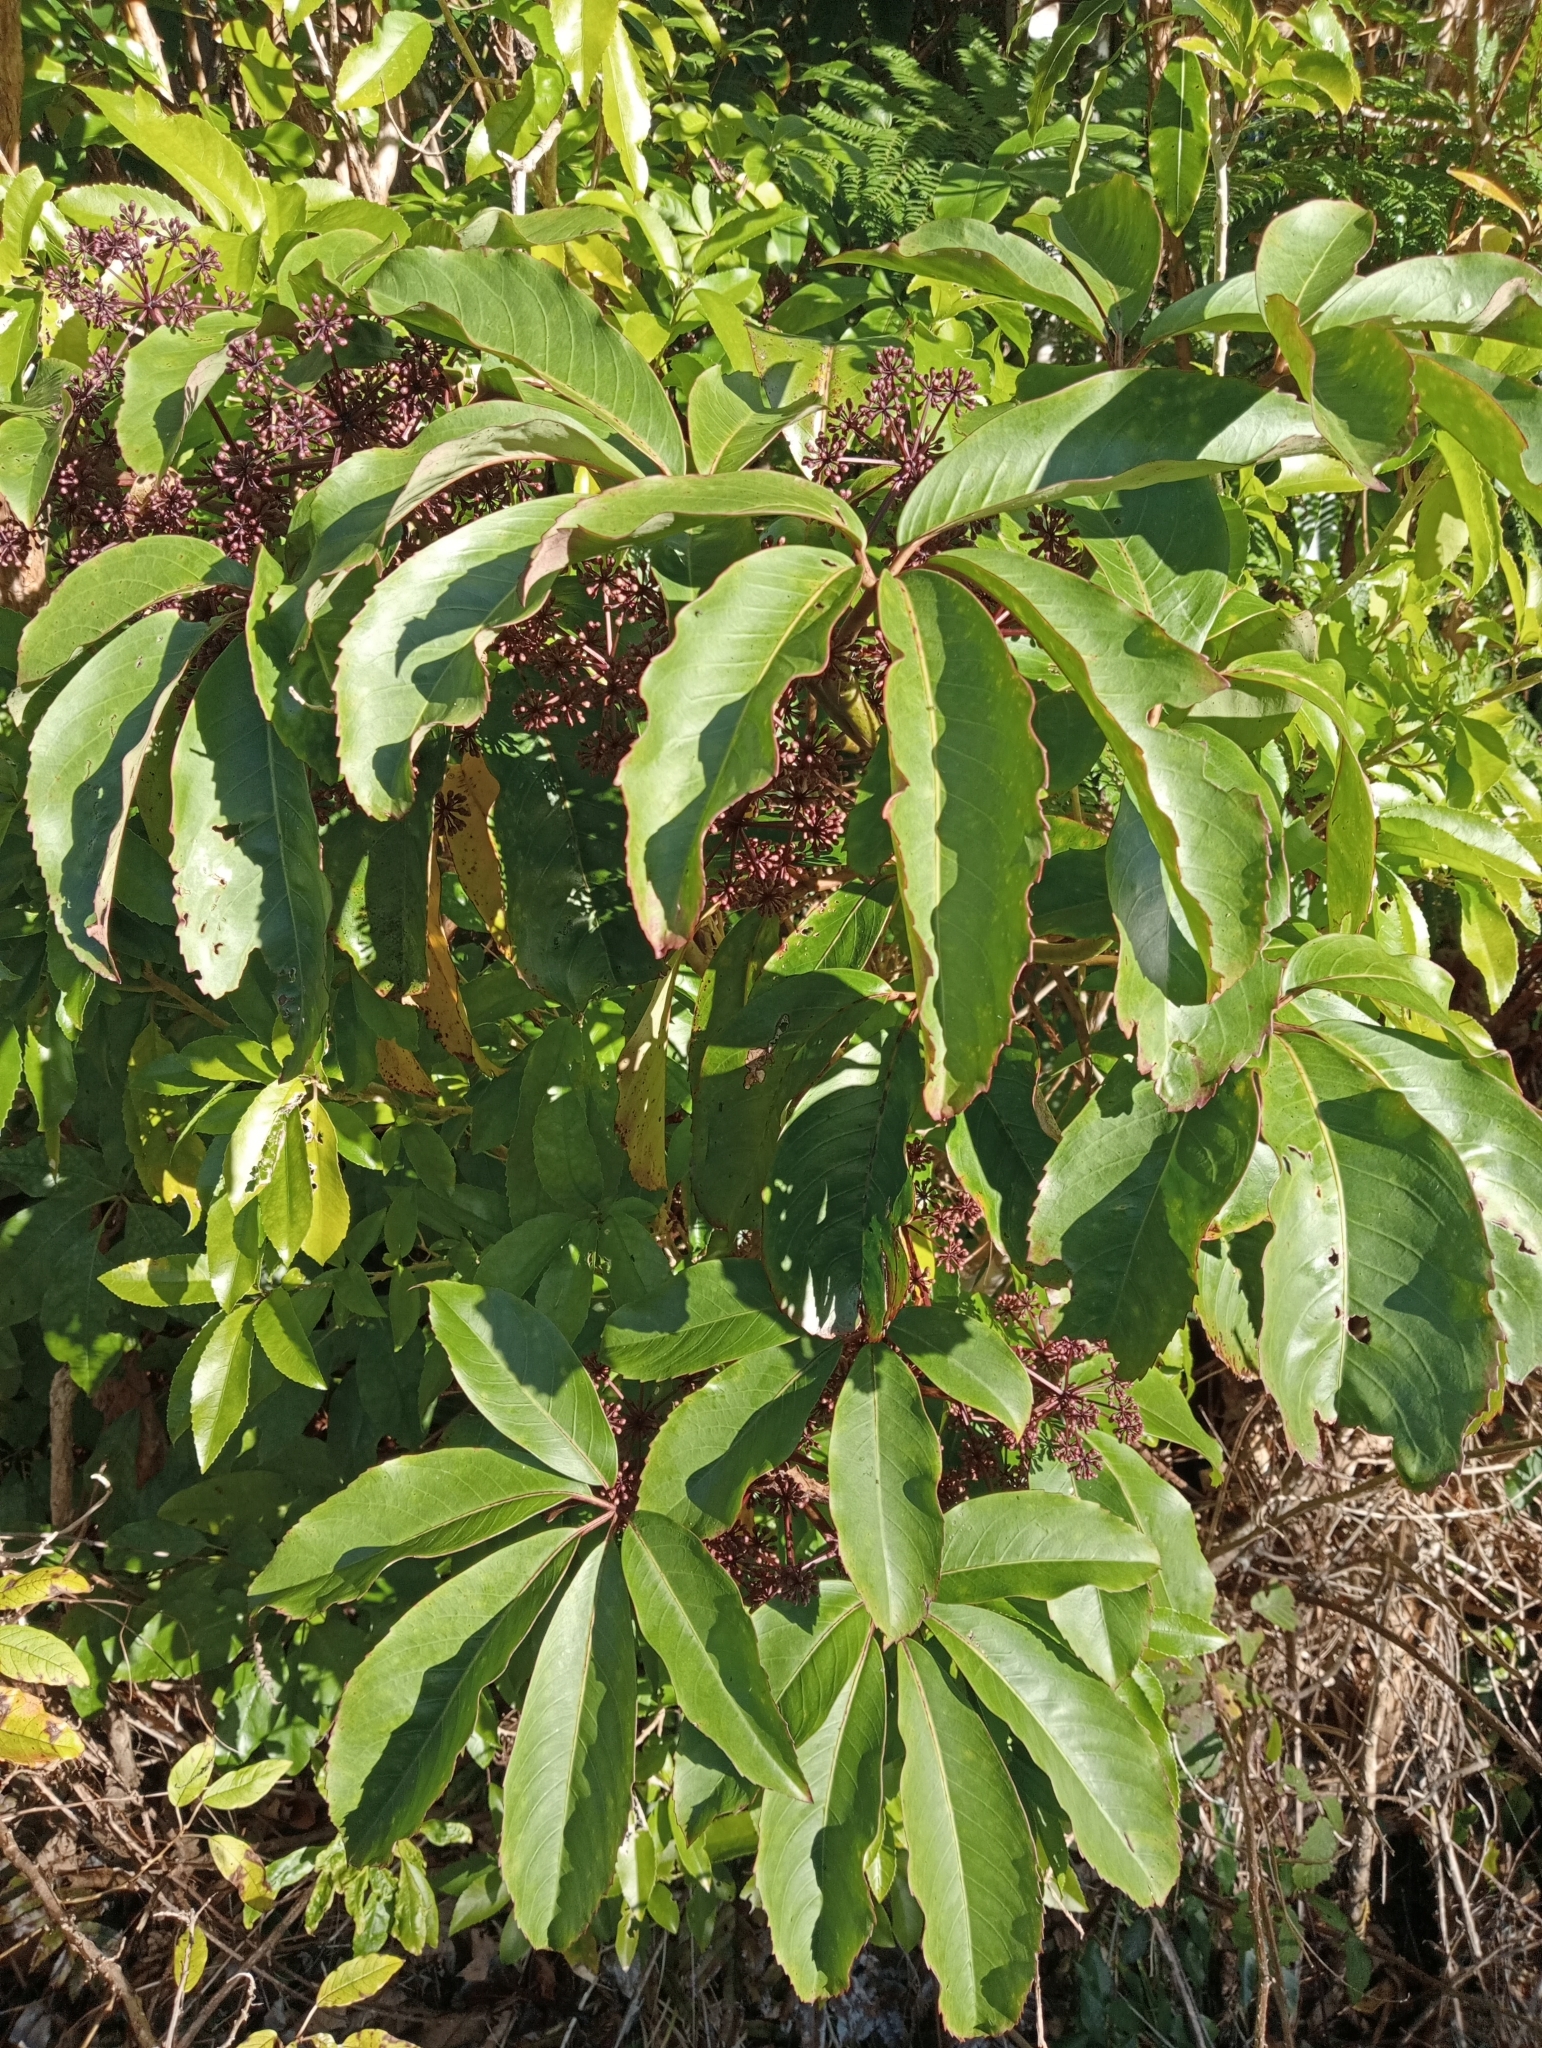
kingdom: Plantae
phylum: Tracheophyta
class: Magnoliopsida
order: Apiales
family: Araliaceae
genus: Neopanax
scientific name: Neopanax laetus
